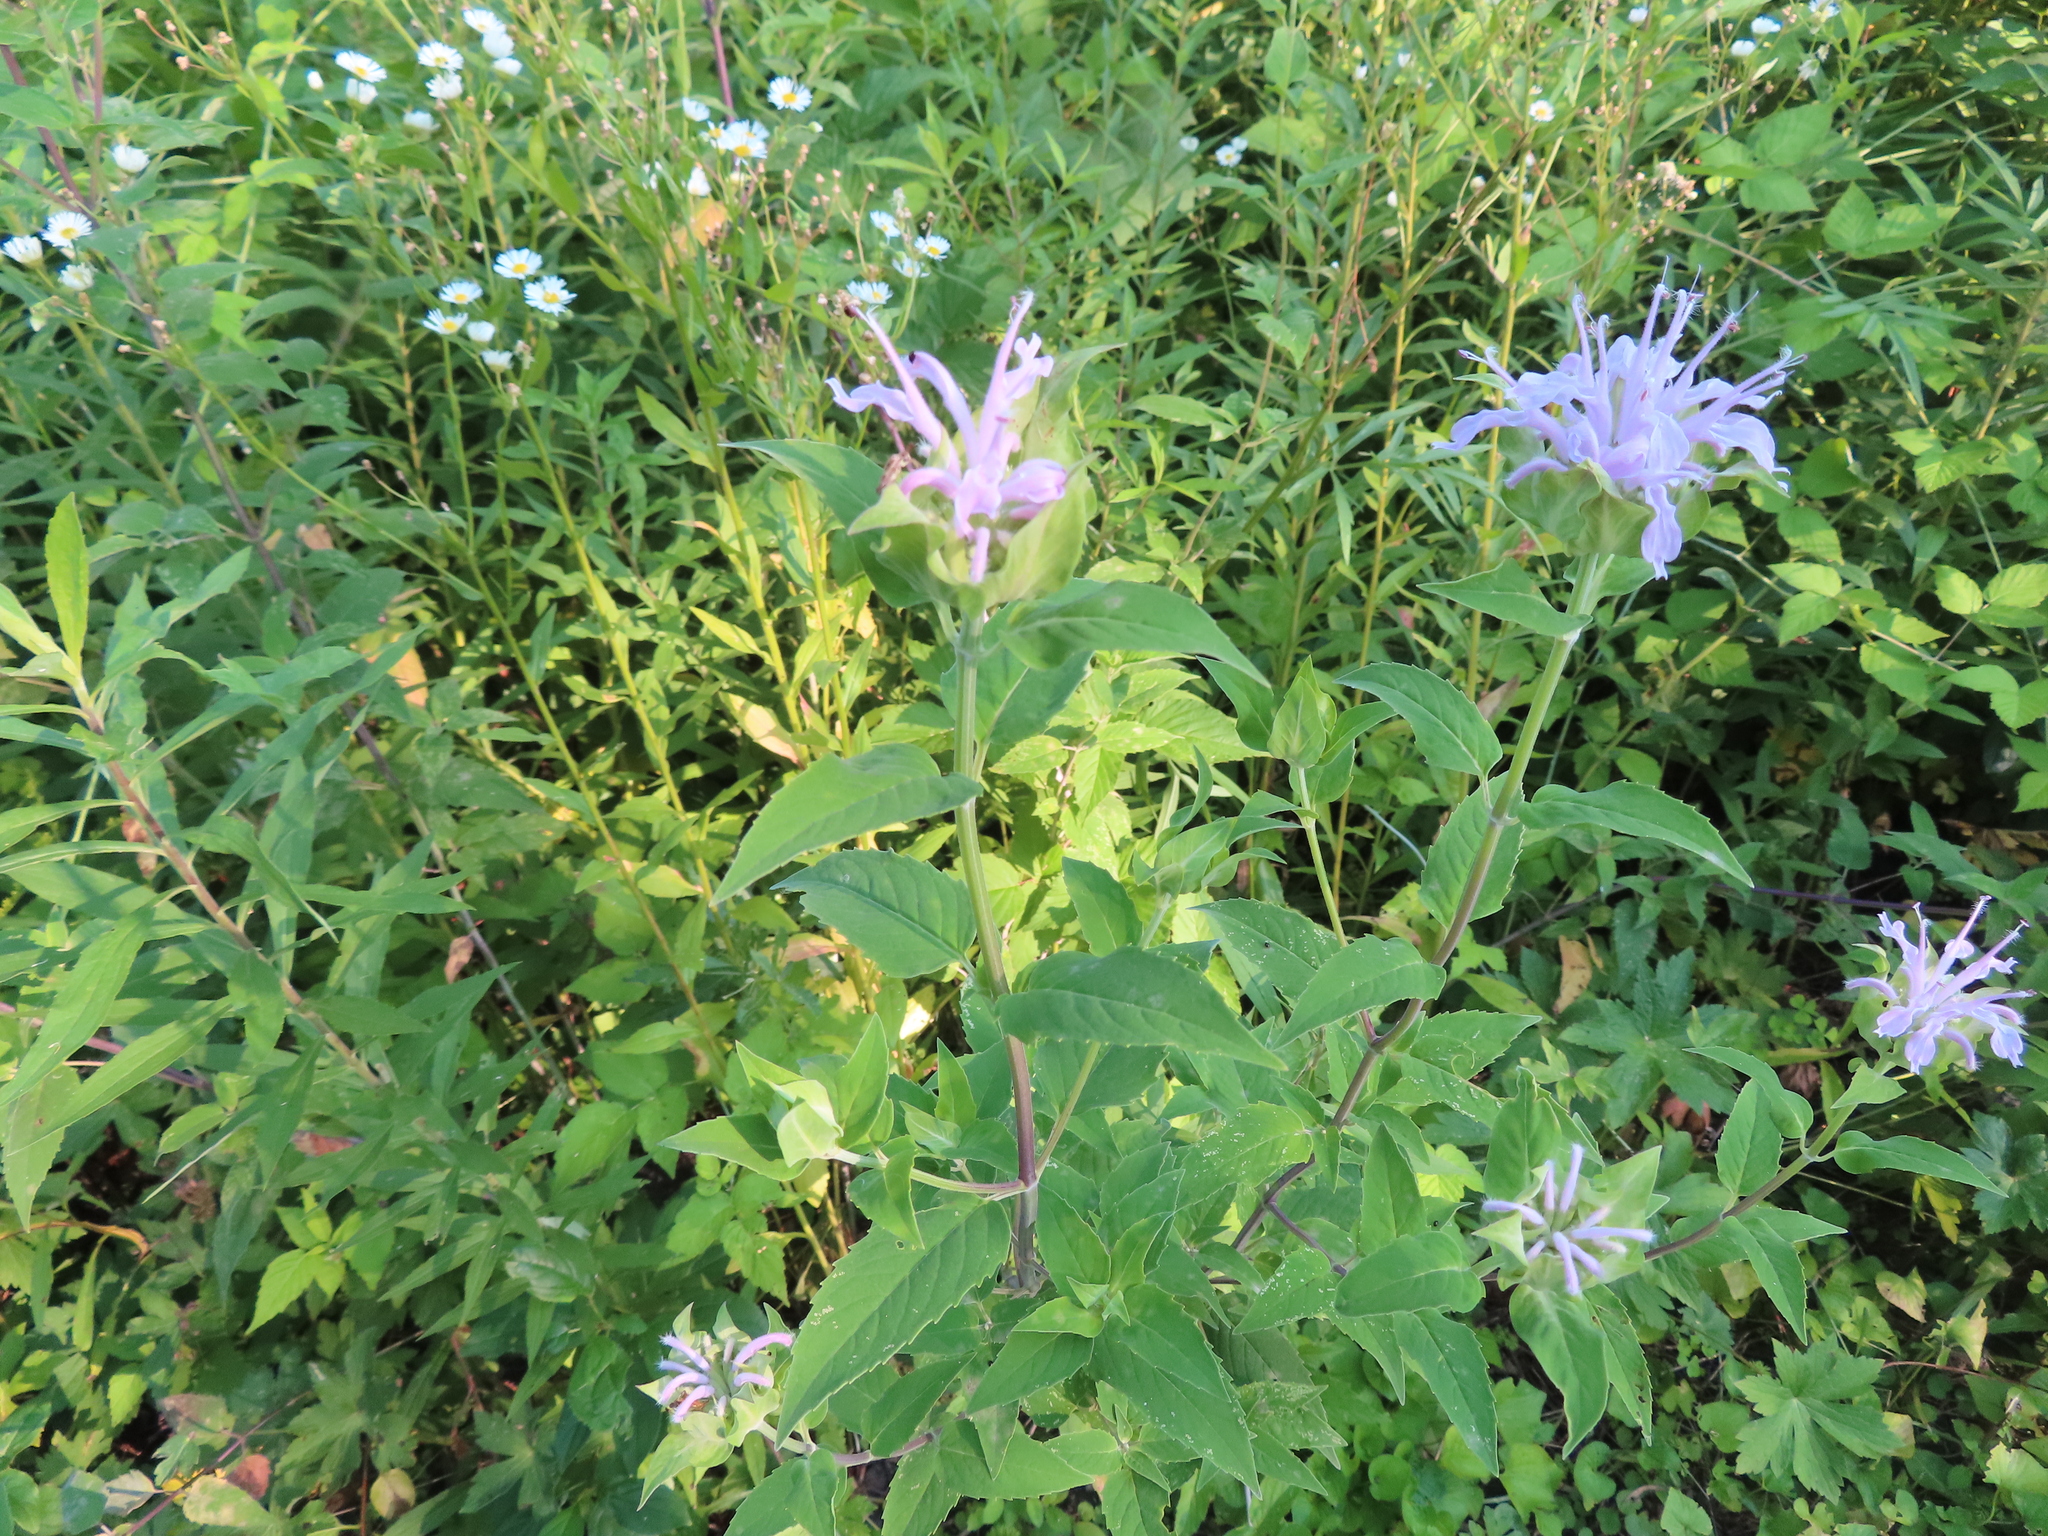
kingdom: Plantae
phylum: Tracheophyta
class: Magnoliopsida
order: Lamiales
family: Lamiaceae
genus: Monarda
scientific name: Monarda fistulosa
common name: Purple beebalm
